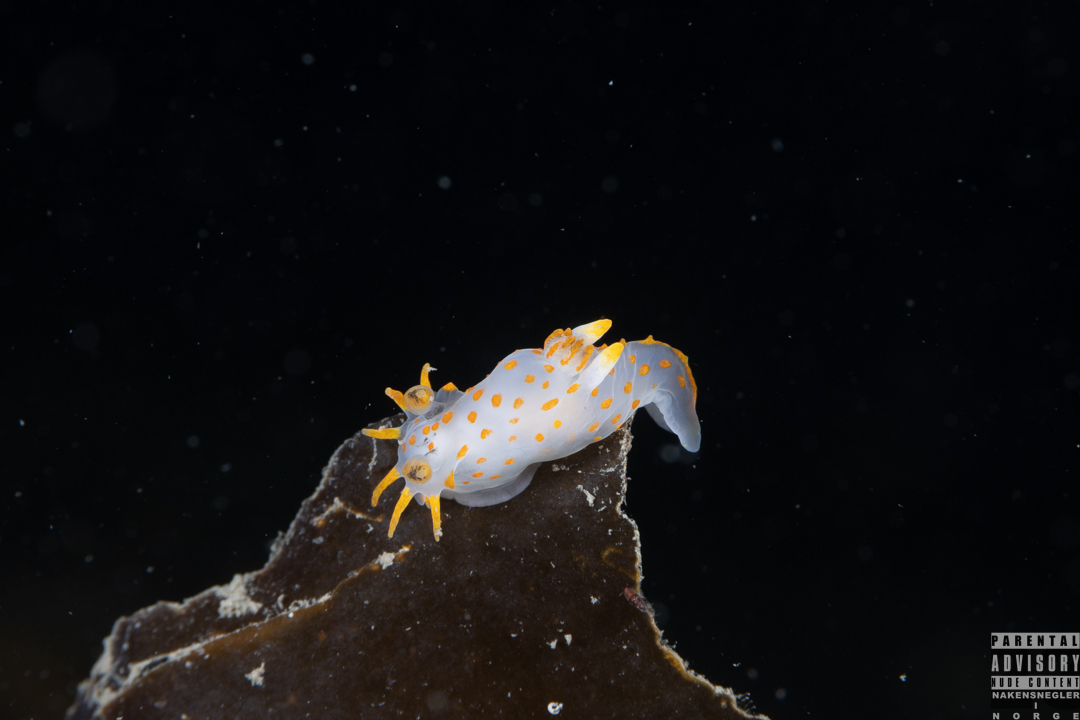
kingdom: Animalia
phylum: Mollusca
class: Gastropoda
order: Nudibranchia
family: Polyceridae
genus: Polycera
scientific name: Polycera quadrilineata
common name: Four-striped polycera
